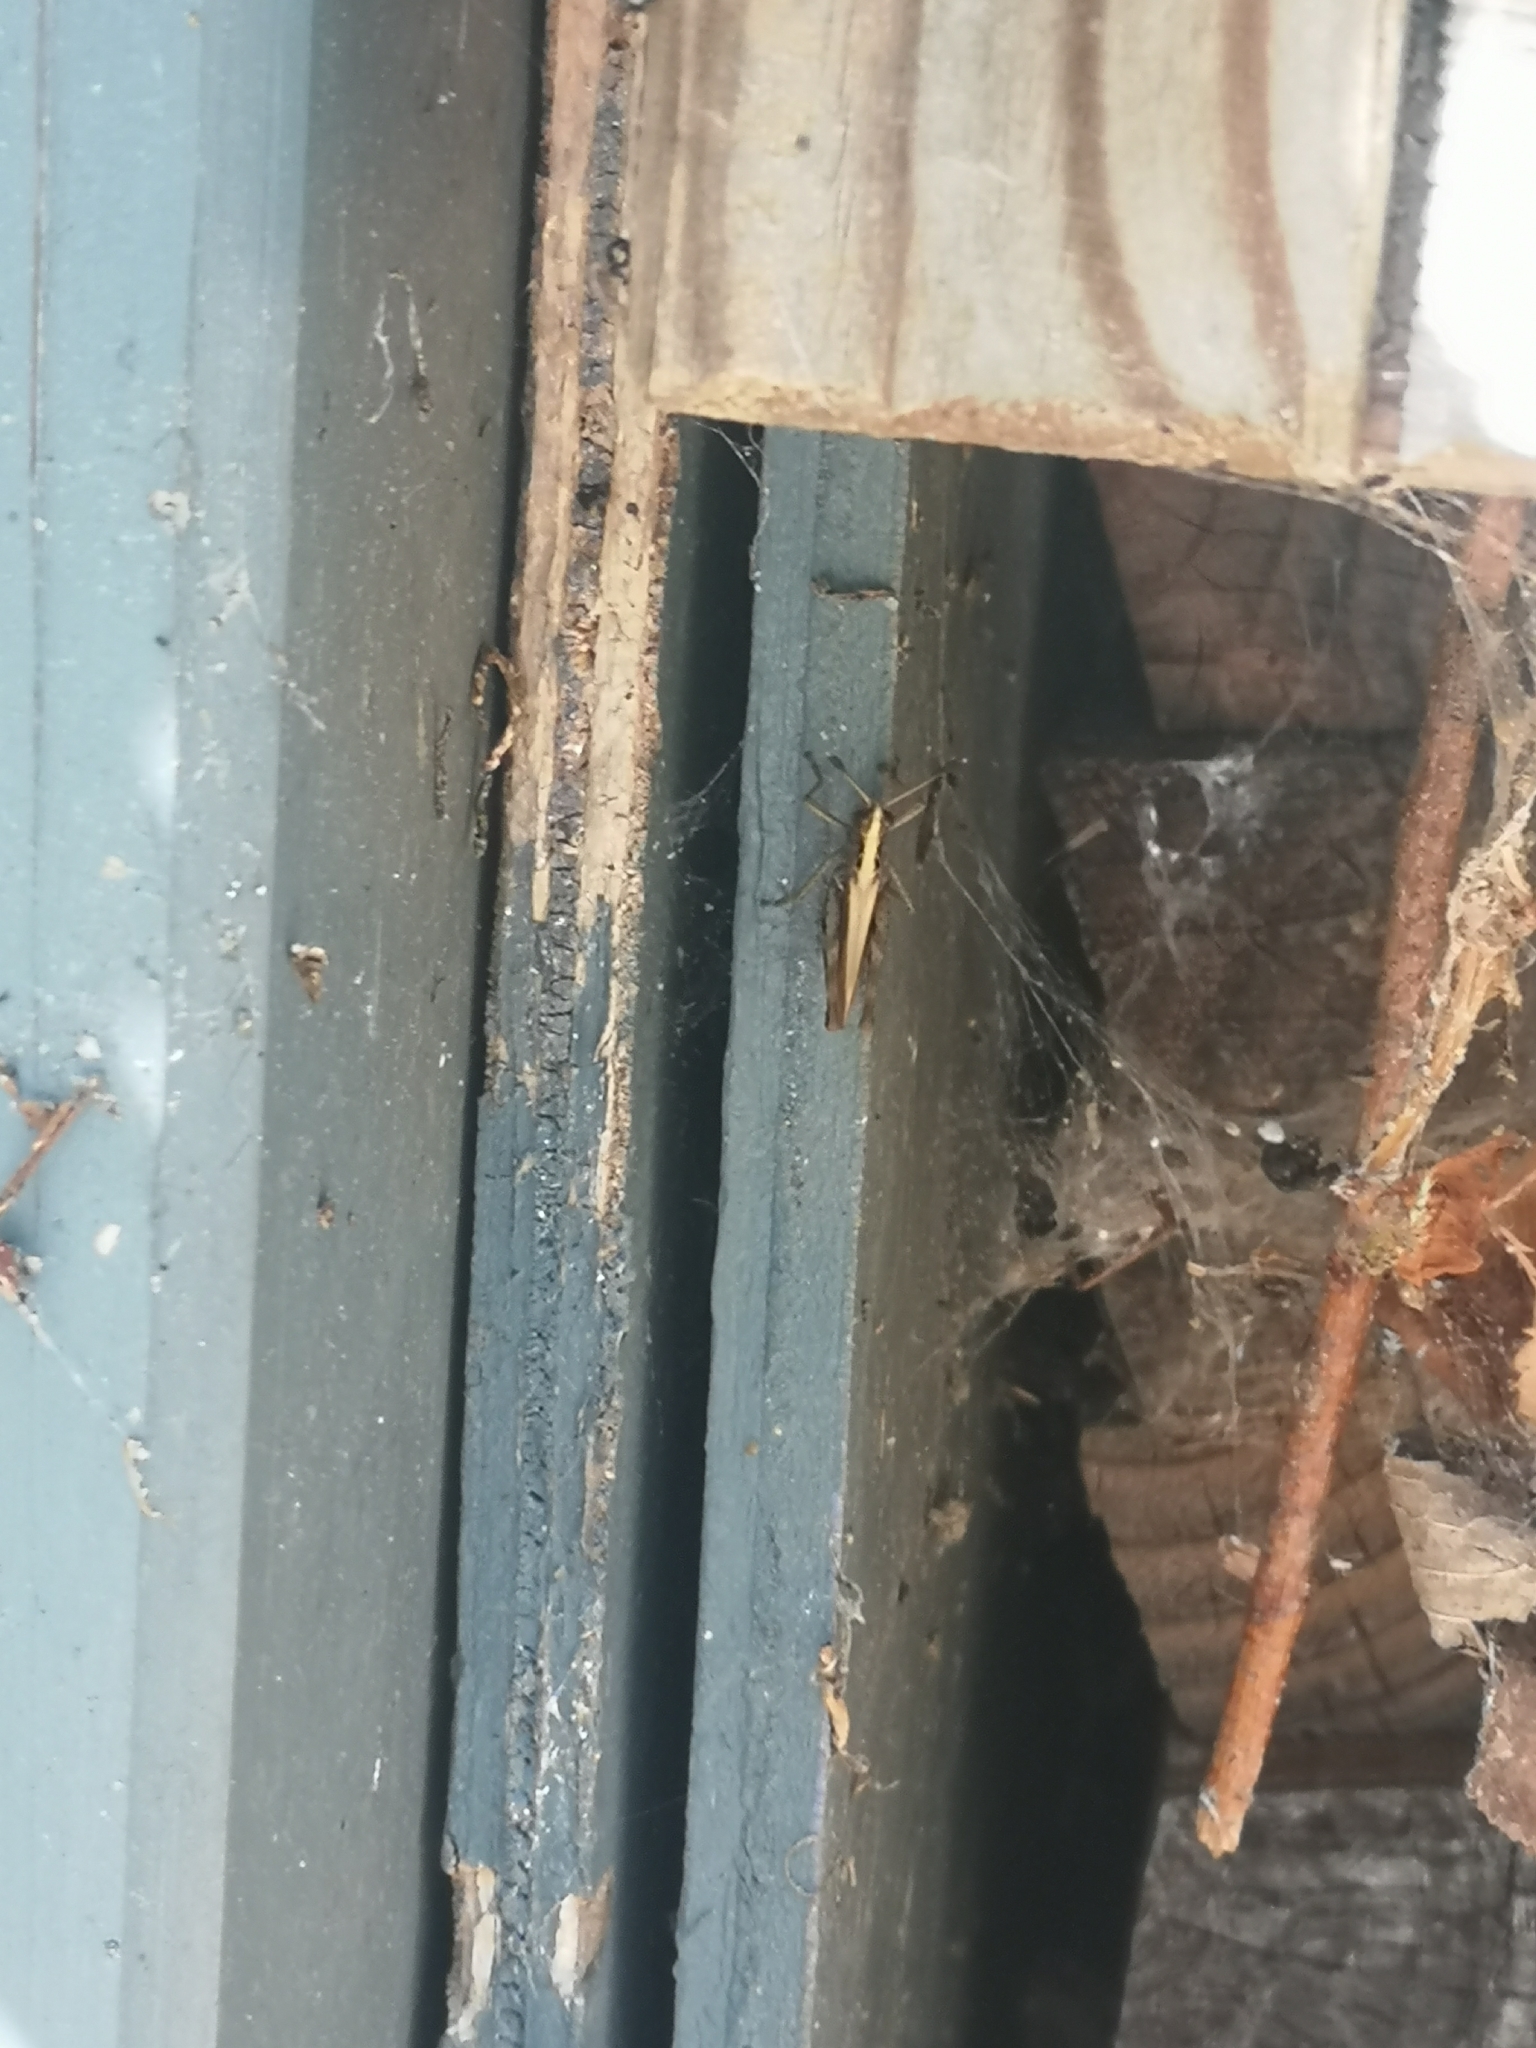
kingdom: Animalia
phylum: Arthropoda
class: Insecta
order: Orthoptera
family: Acrididae
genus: Gomphocerippus
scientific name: Gomphocerippus rufus
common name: Rufous grasshopper
